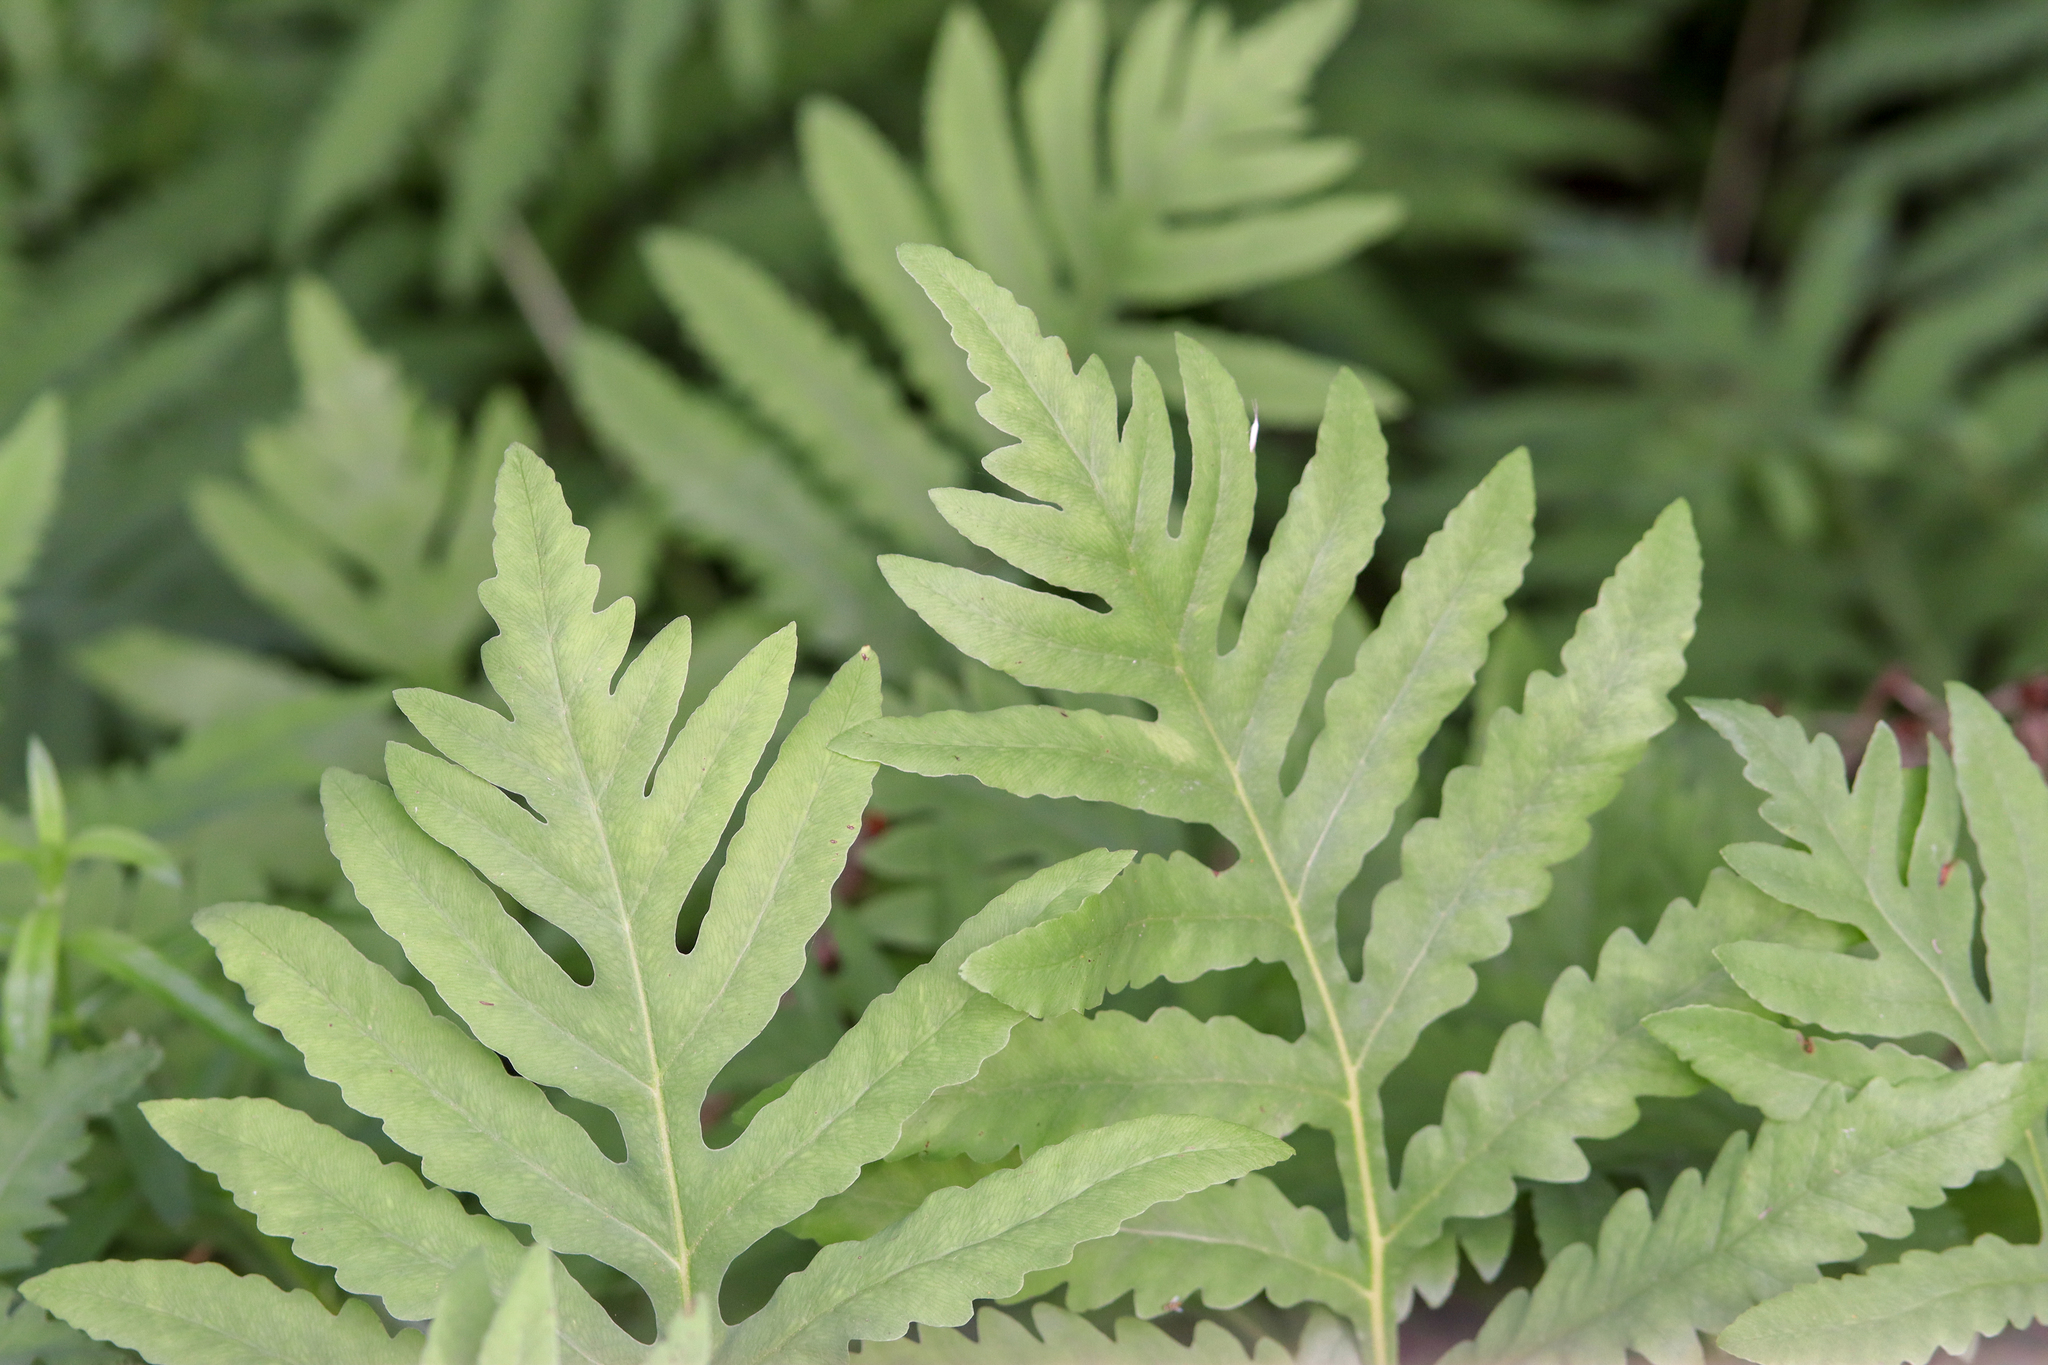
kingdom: Plantae
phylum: Tracheophyta
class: Polypodiopsida
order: Polypodiales
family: Onocleaceae
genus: Onoclea
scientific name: Onoclea sensibilis
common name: Sensitive fern
